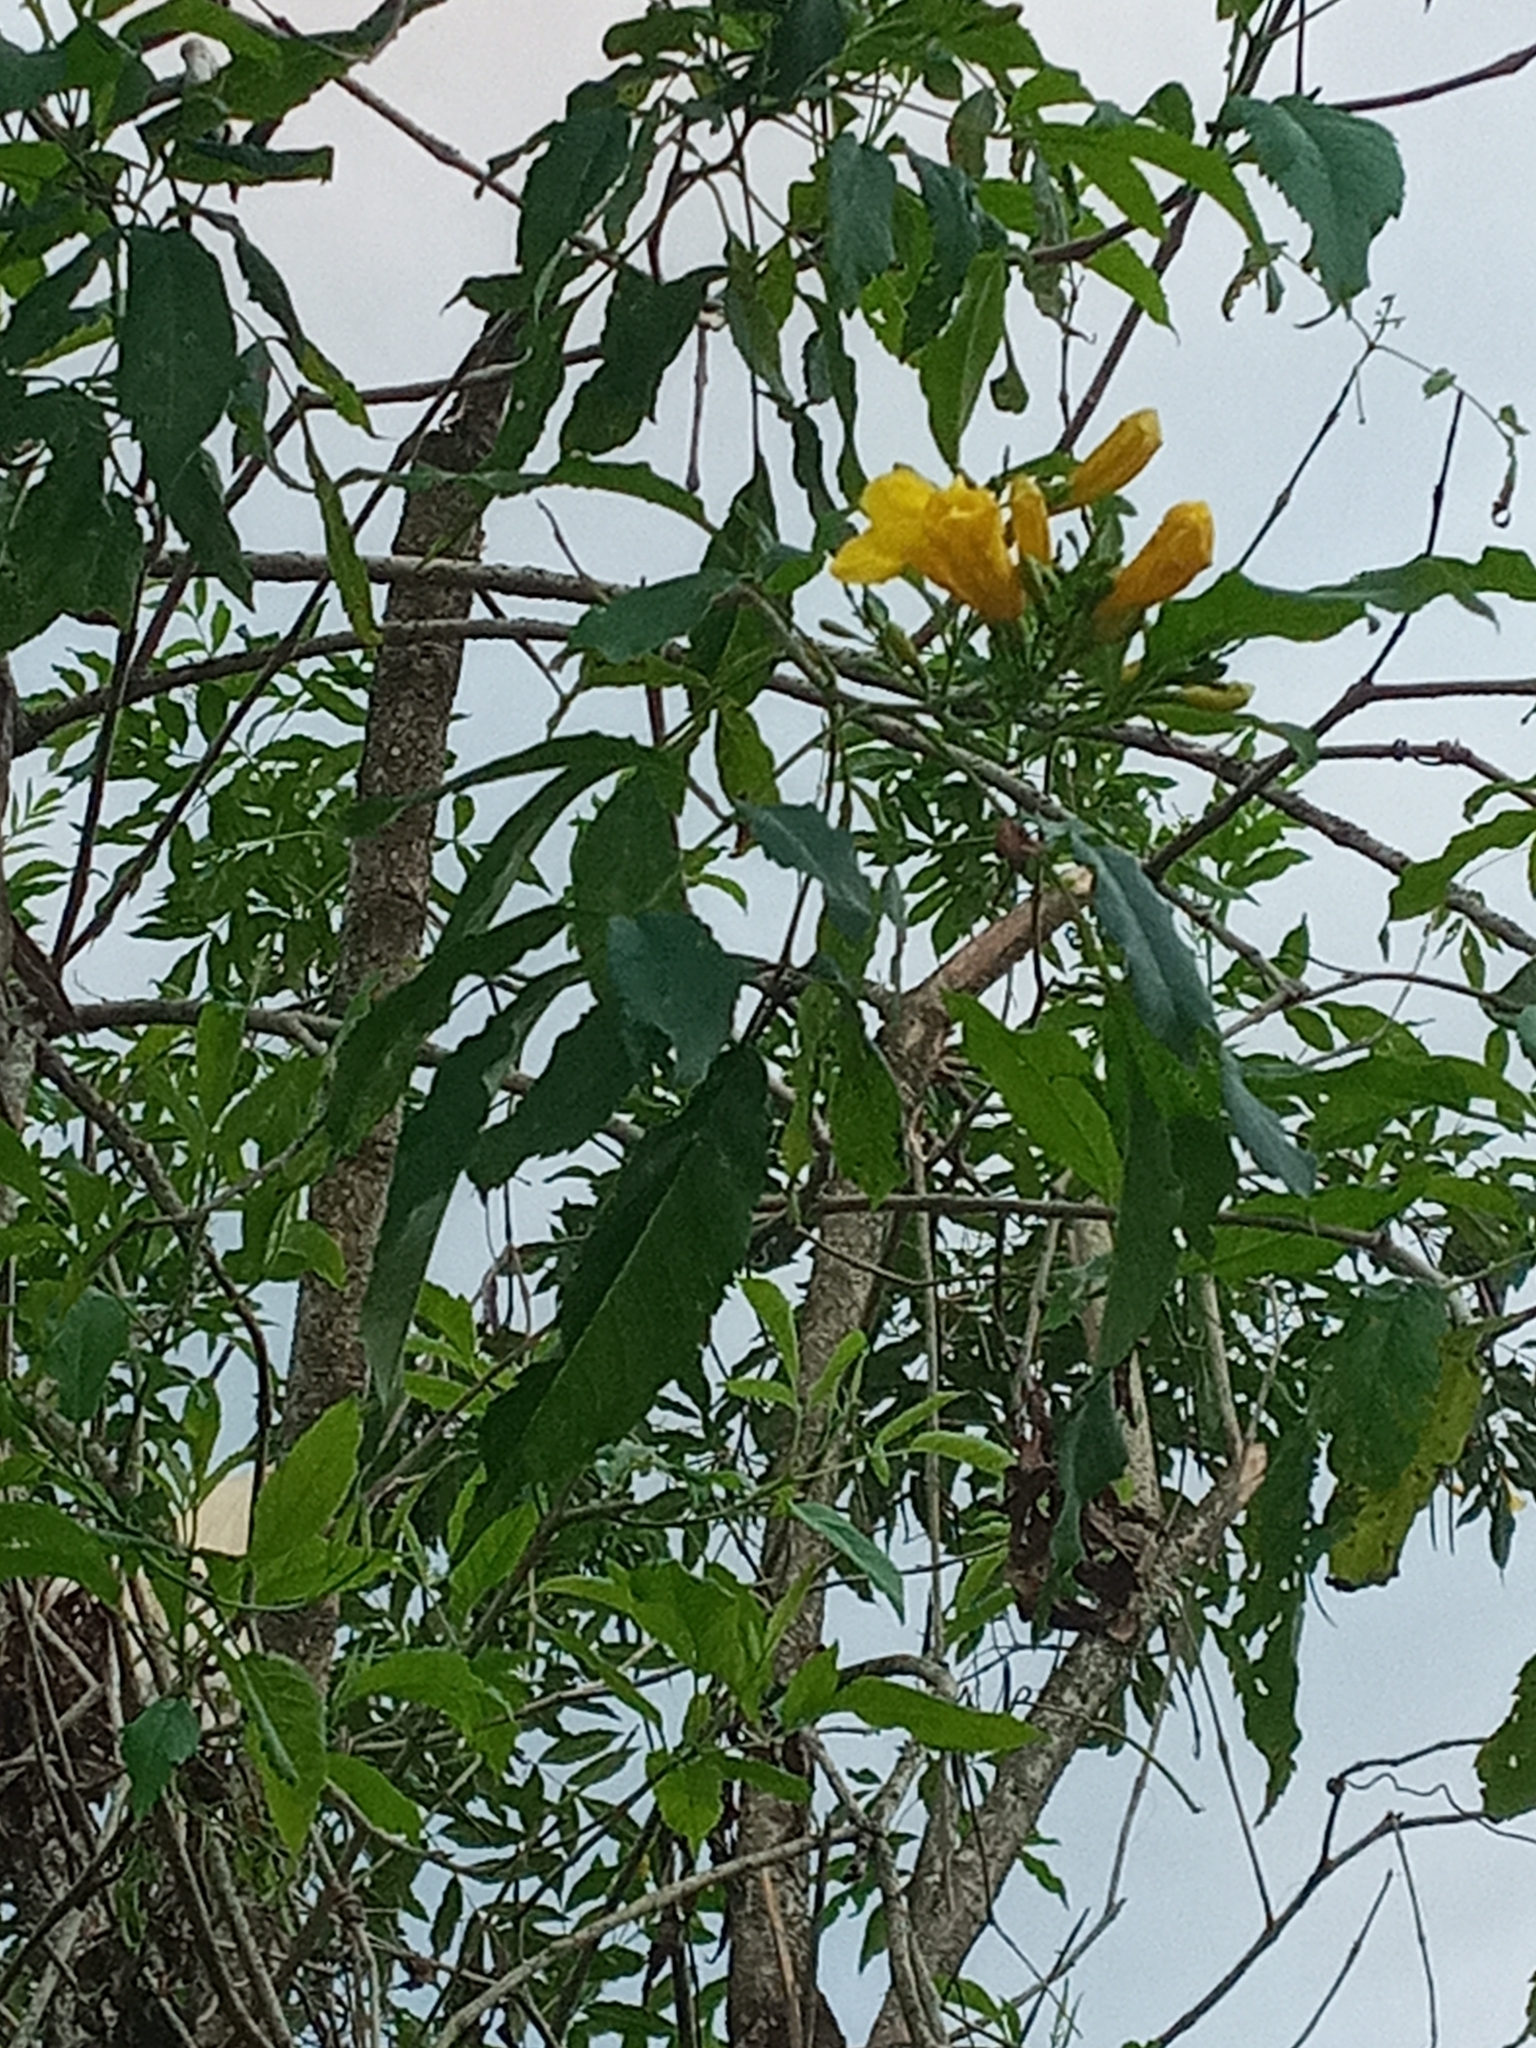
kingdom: Plantae
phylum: Tracheophyta
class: Magnoliopsida
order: Lamiales
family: Bignoniaceae
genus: Tecoma
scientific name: Tecoma stans
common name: Yellow trumpetbush
